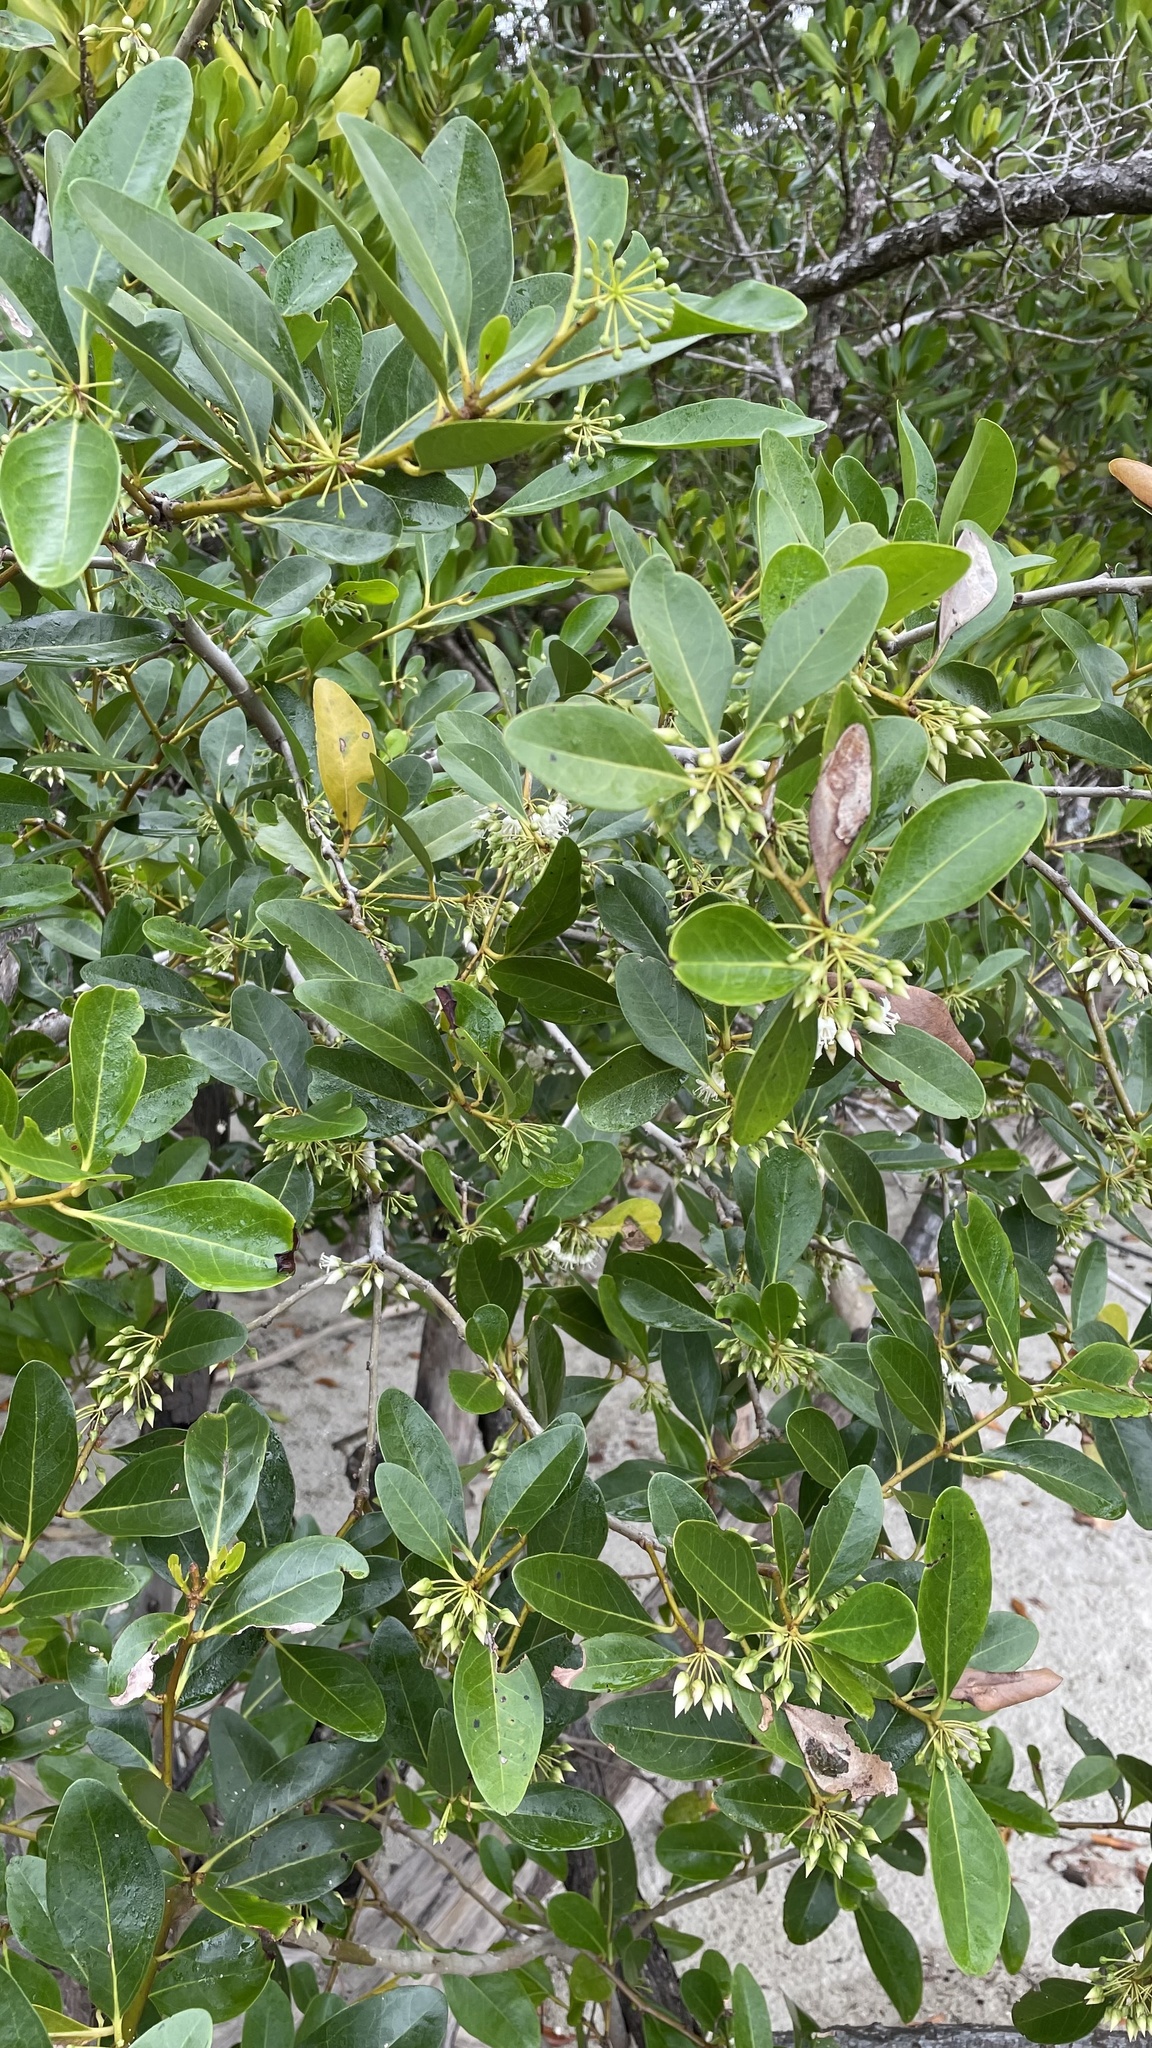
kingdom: Plantae
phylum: Tracheophyta
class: Magnoliopsida
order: Ericales
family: Primulaceae
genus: Aegiceras
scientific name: Aegiceras corniculatum
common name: River mangrove
